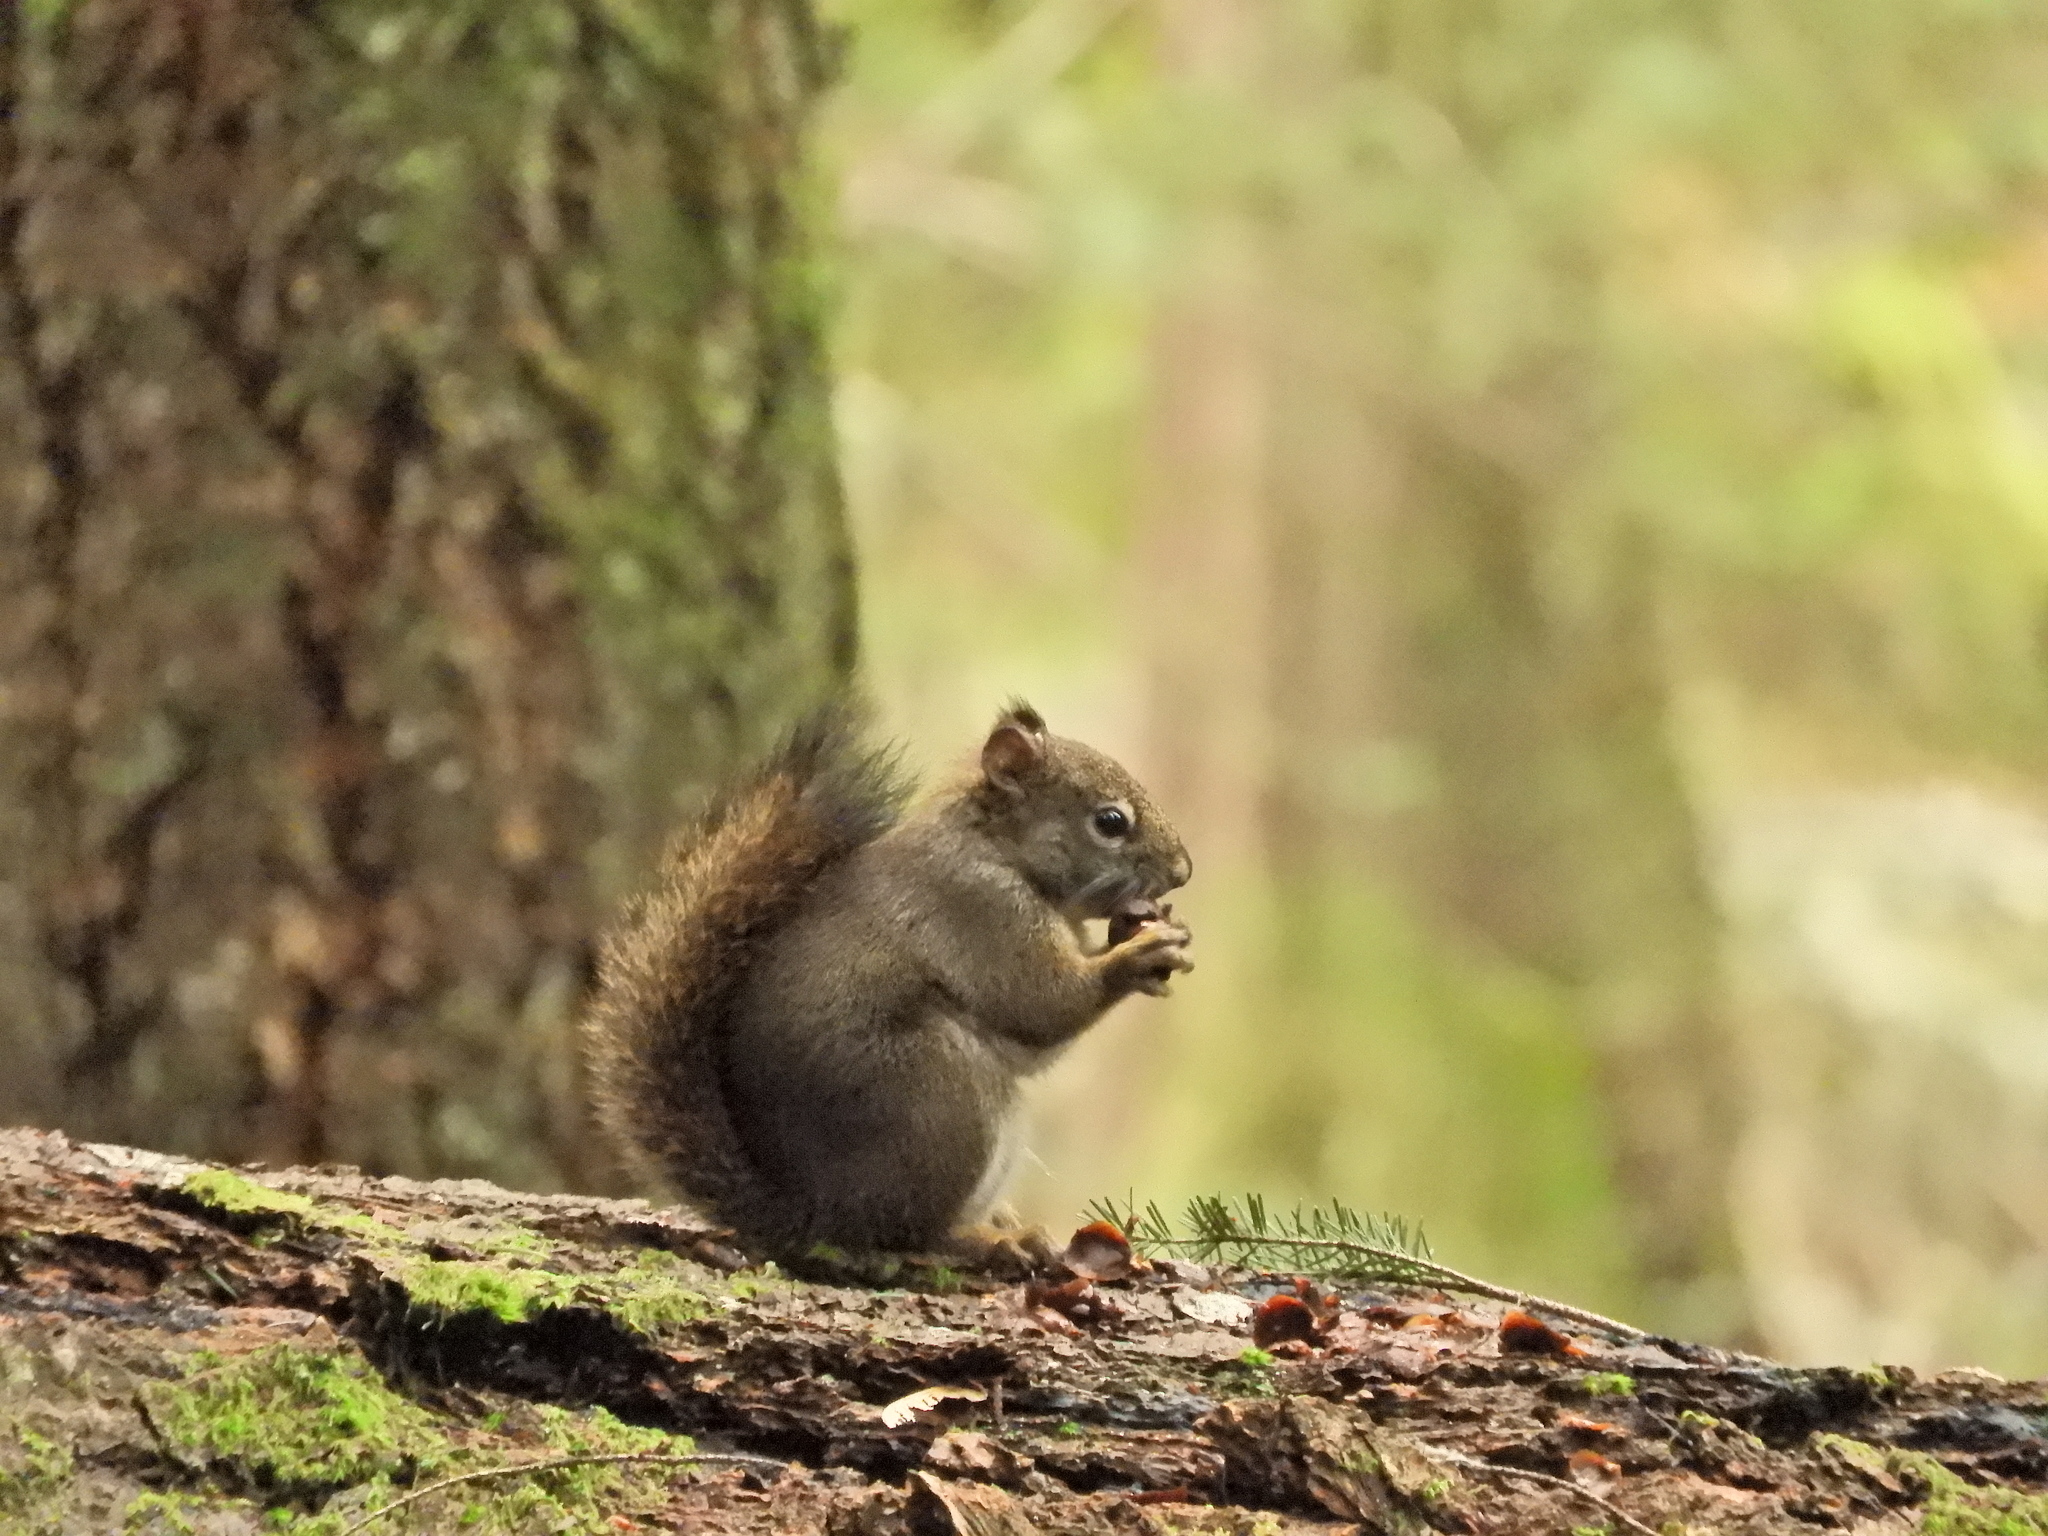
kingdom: Animalia
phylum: Chordata
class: Mammalia
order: Rodentia
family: Sciuridae
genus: Tamiasciurus
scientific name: Tamiasciurus hudsonicus
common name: Red squirrel
